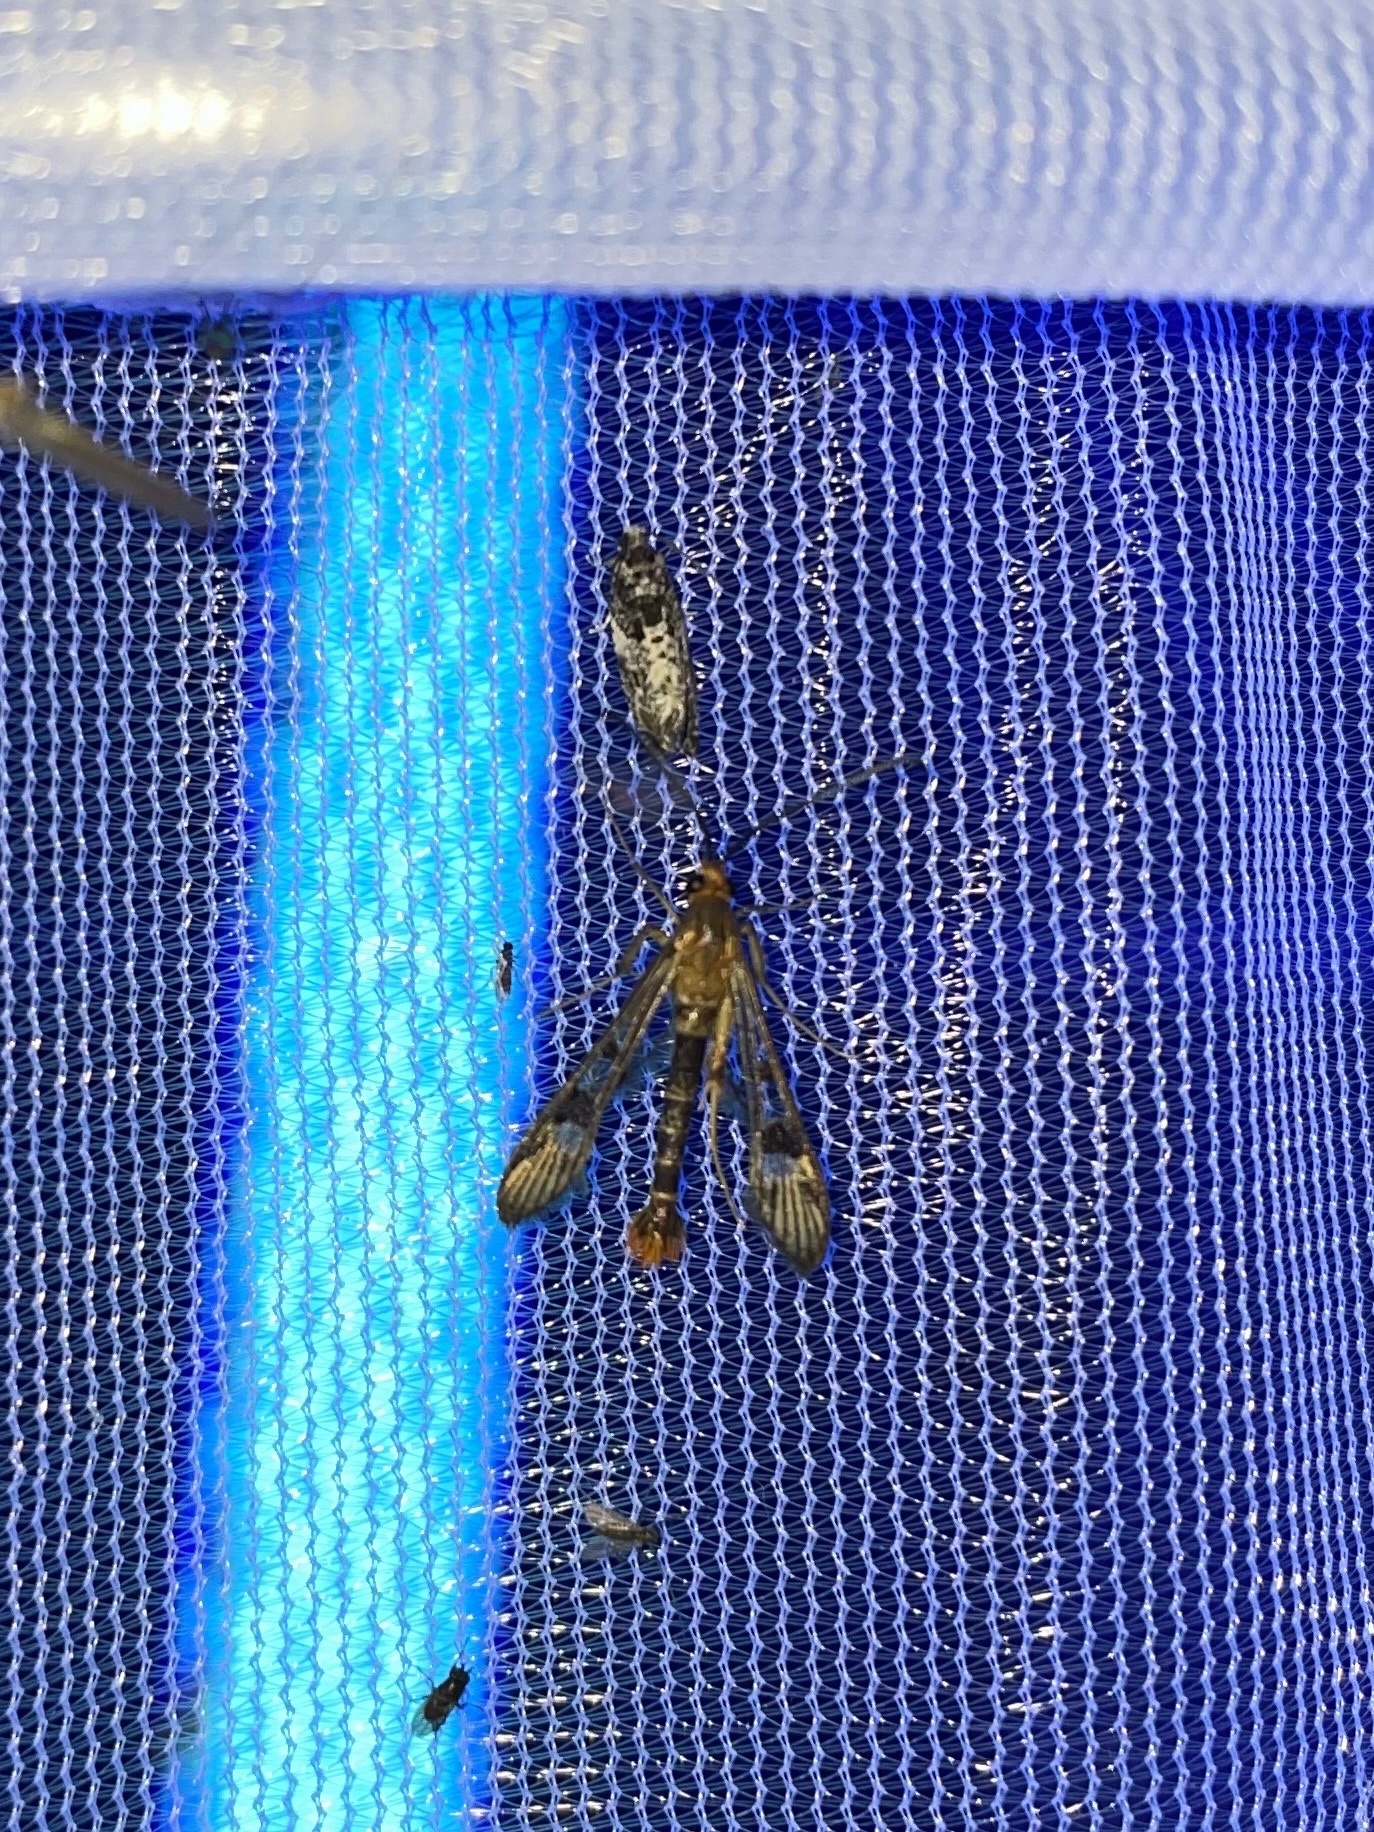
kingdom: Animalia
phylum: Arthropoda
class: Insecta
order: Lepidoptera
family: Sesiidae
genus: Synanthedon
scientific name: Synanthedon acerni
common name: Maple callus borer moth
